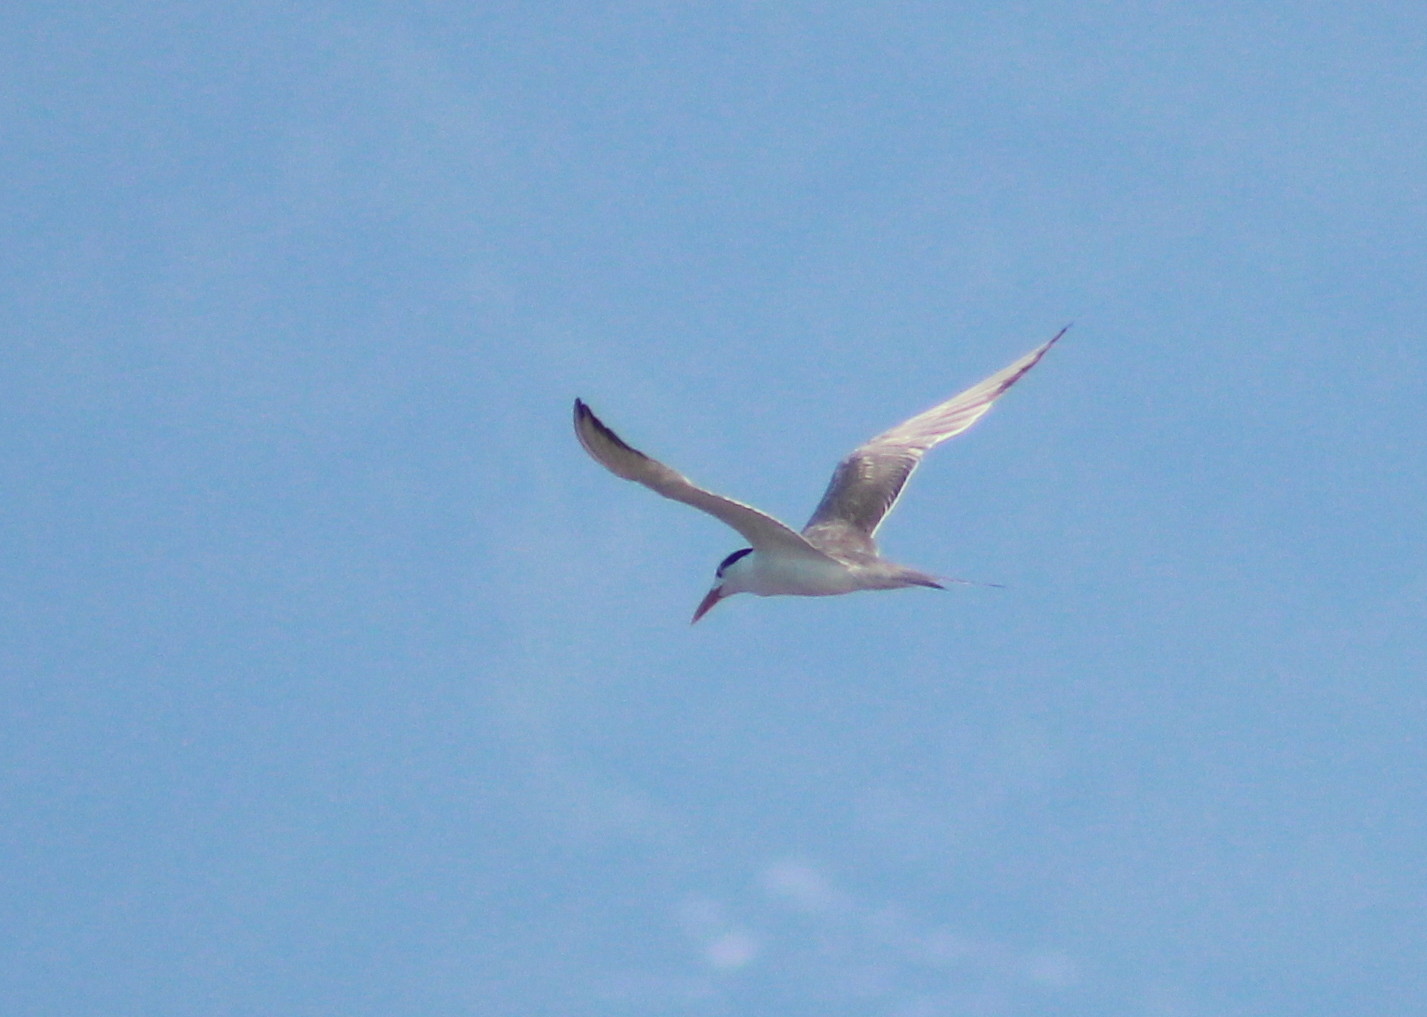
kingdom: Animalia
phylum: Chordata
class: Aves
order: Charadriiformes
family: Laridae
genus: Thalasseus
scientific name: Thalasseus bergii
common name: Greater crested tern
